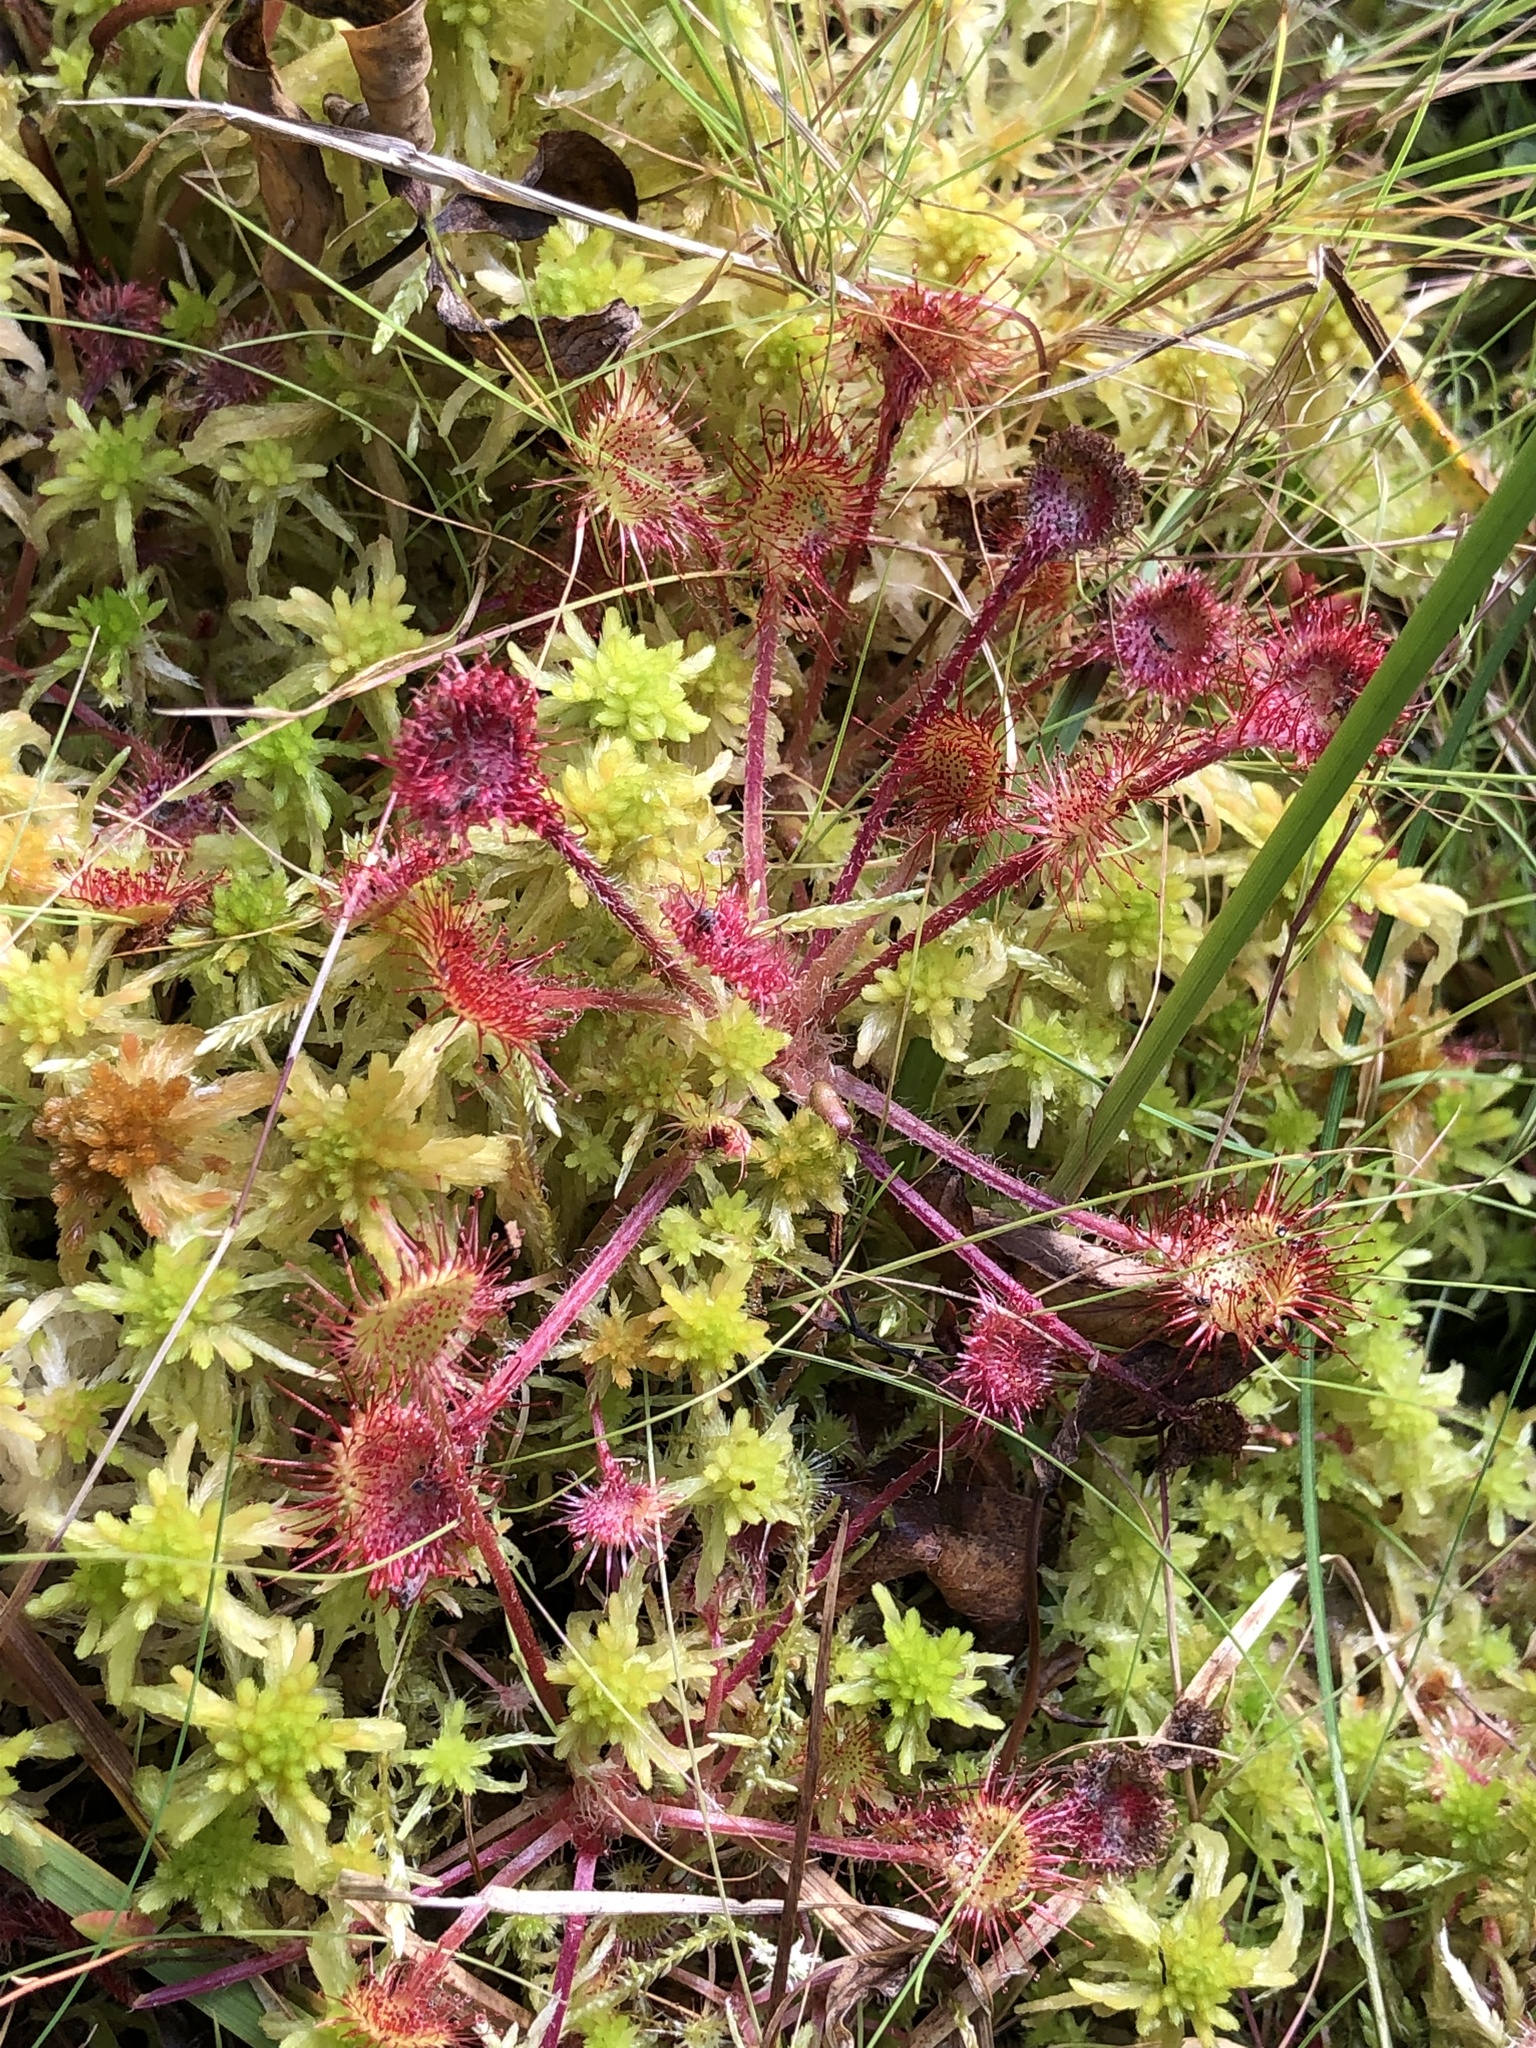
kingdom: Plantae
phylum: Tracheophyta
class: Magnoliopsida
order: Caryophyllales
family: Droseraceae
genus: Drosera
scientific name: Drosera rotundifolia
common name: Round-leaved sundew
